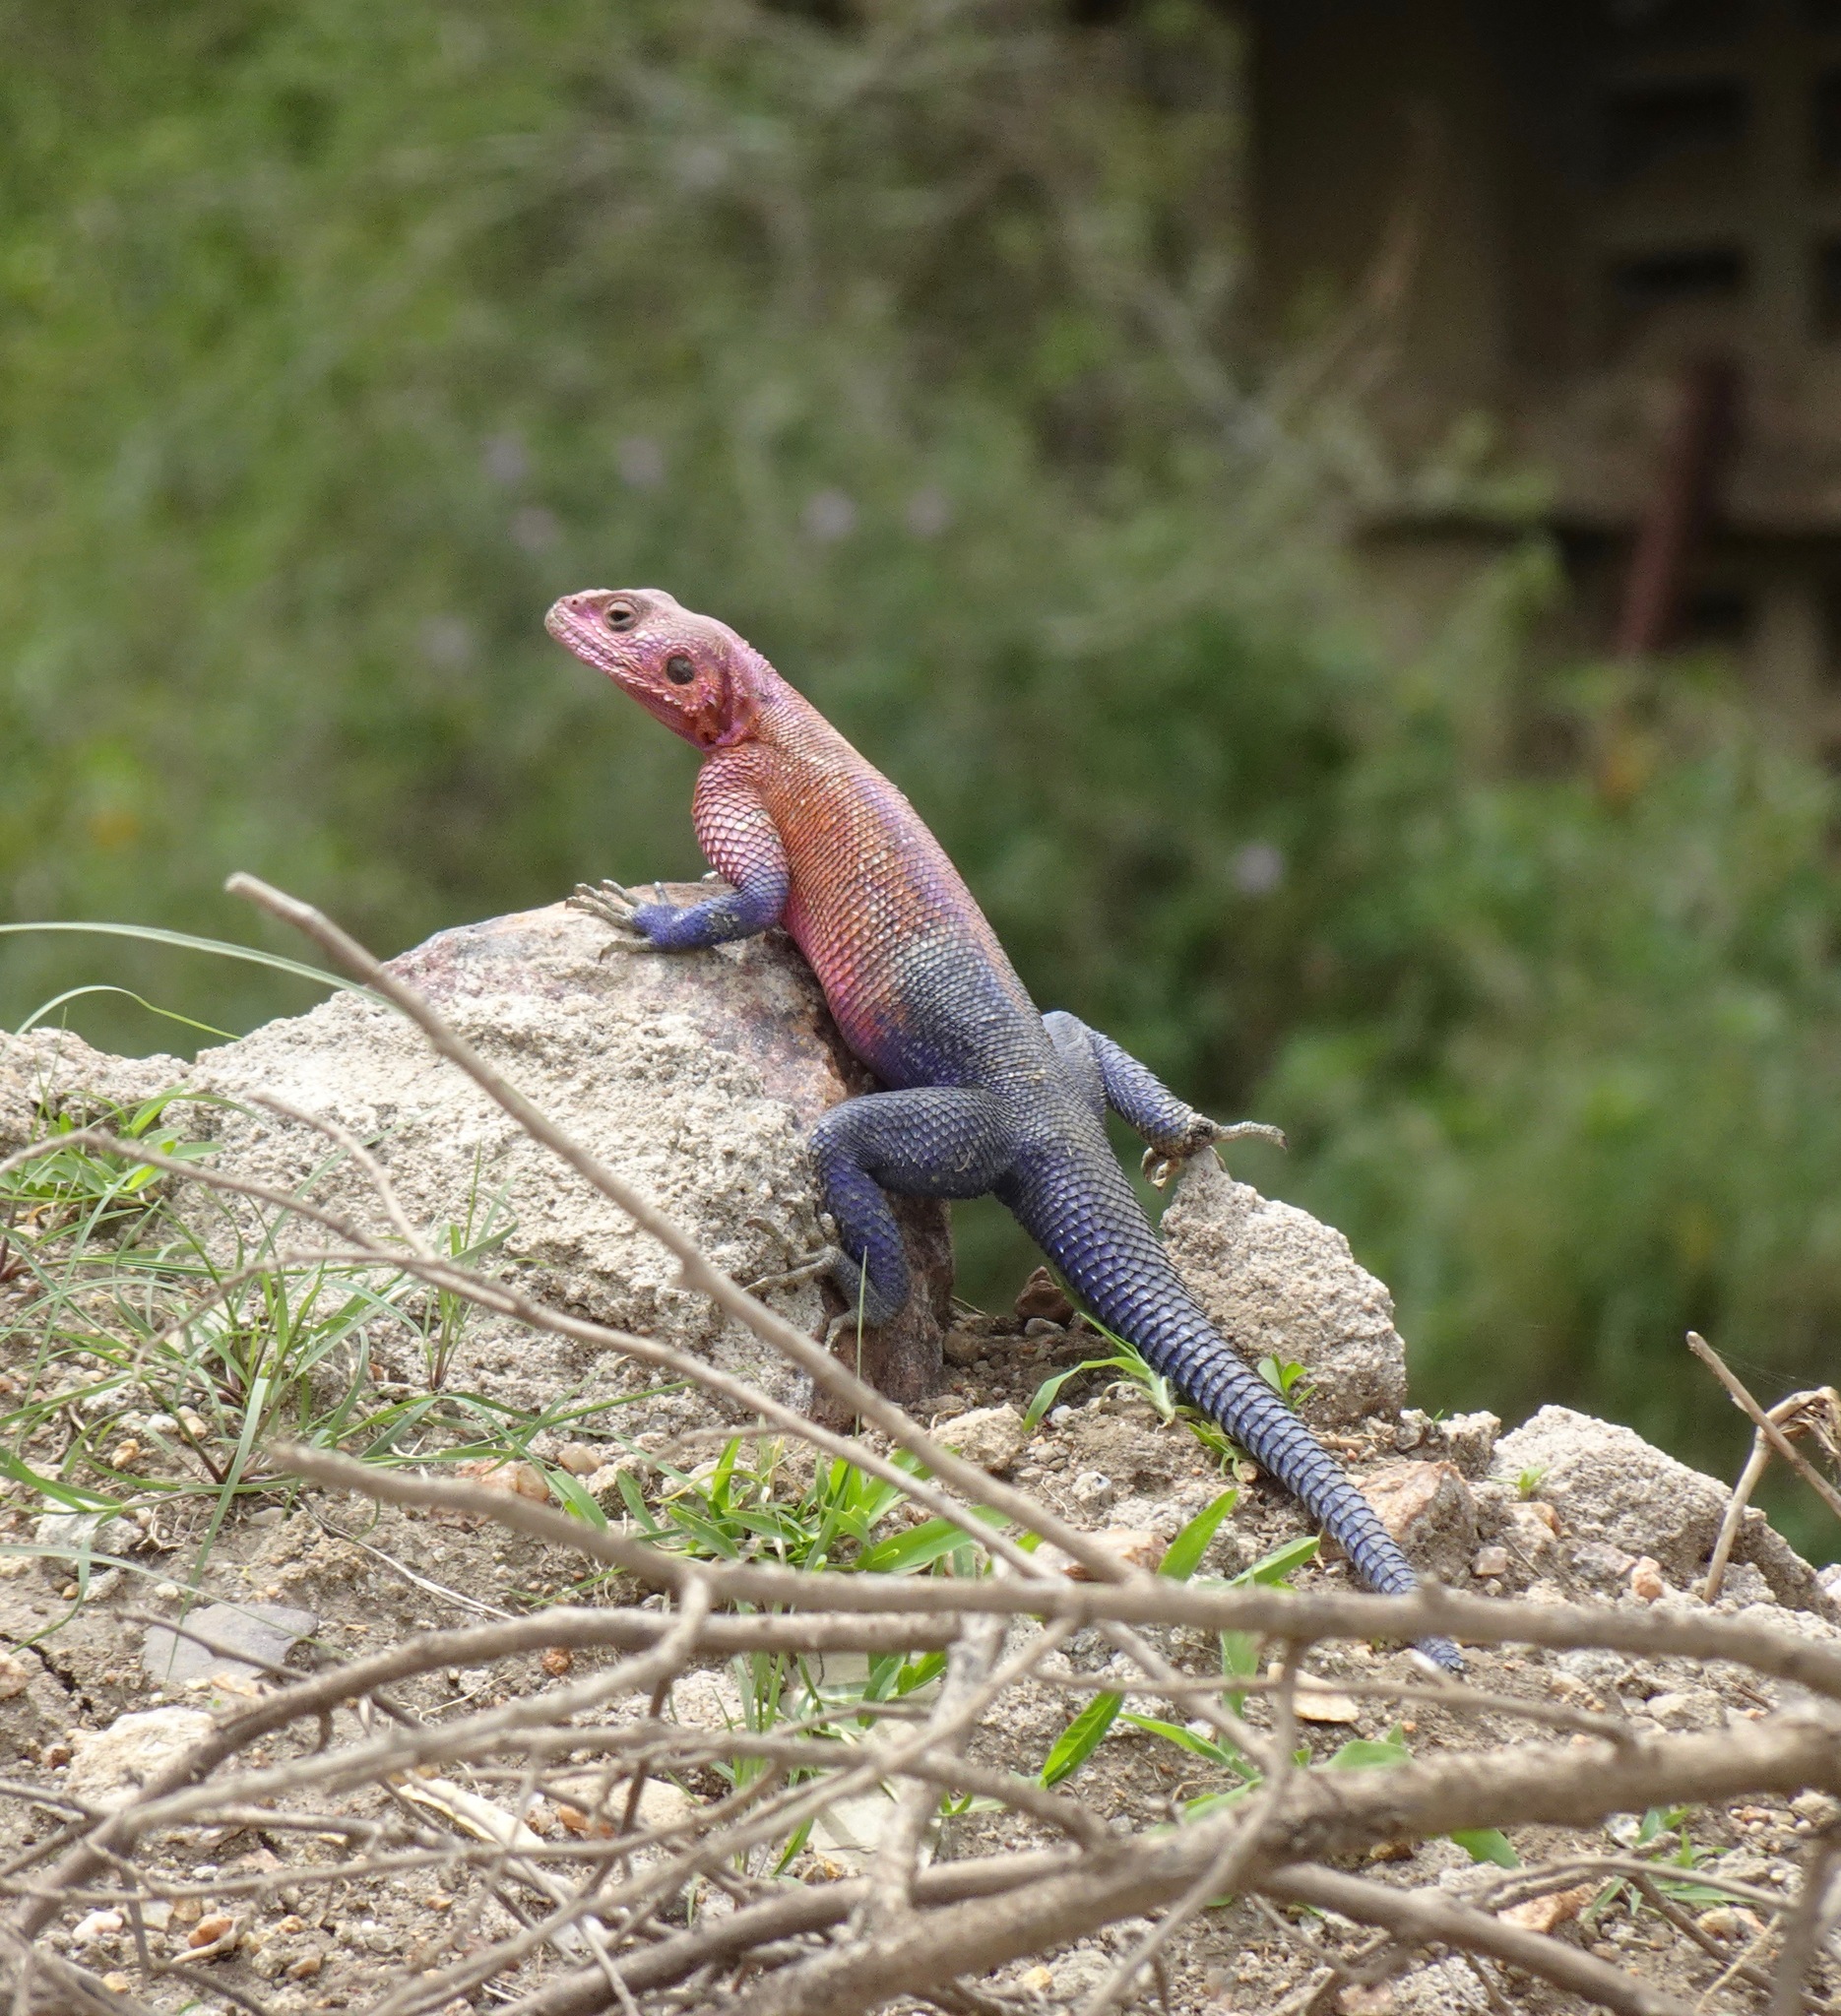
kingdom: Animalia
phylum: Chordata
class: Squamata
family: Agamidae
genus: Agama
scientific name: Agama mwanzae
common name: Mwanza flat-headed agama
